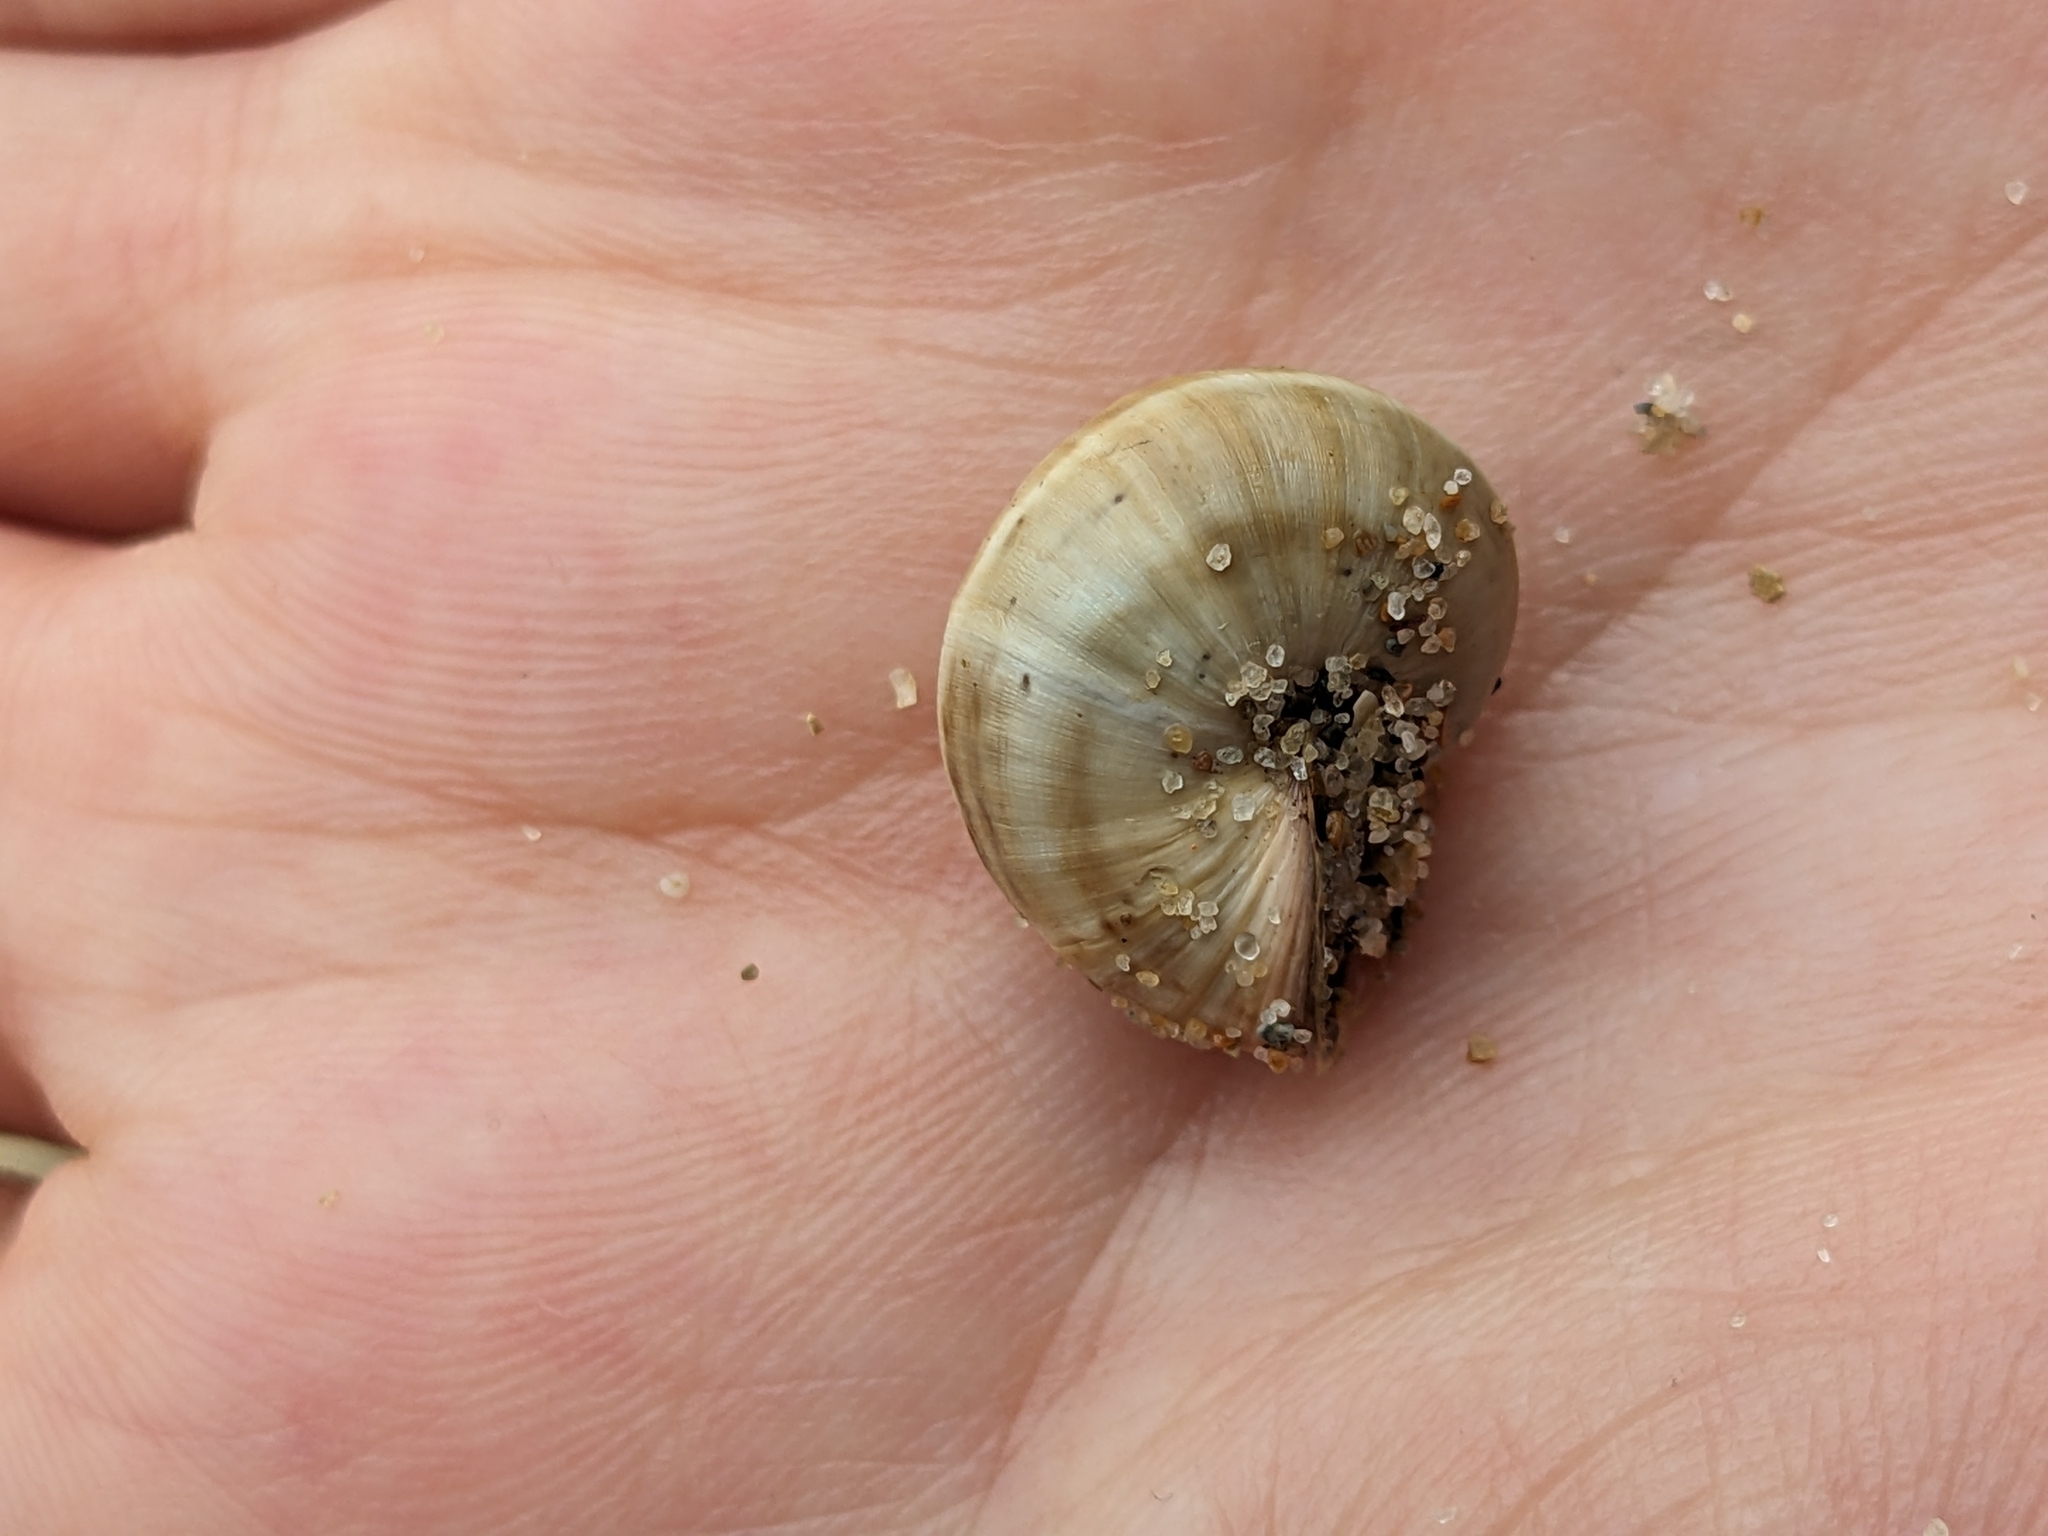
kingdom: Animalia
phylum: Mollusca
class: Gastropoda
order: Stylommatophora
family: Helicidae
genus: Theba
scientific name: Theba pisana
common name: White snail
